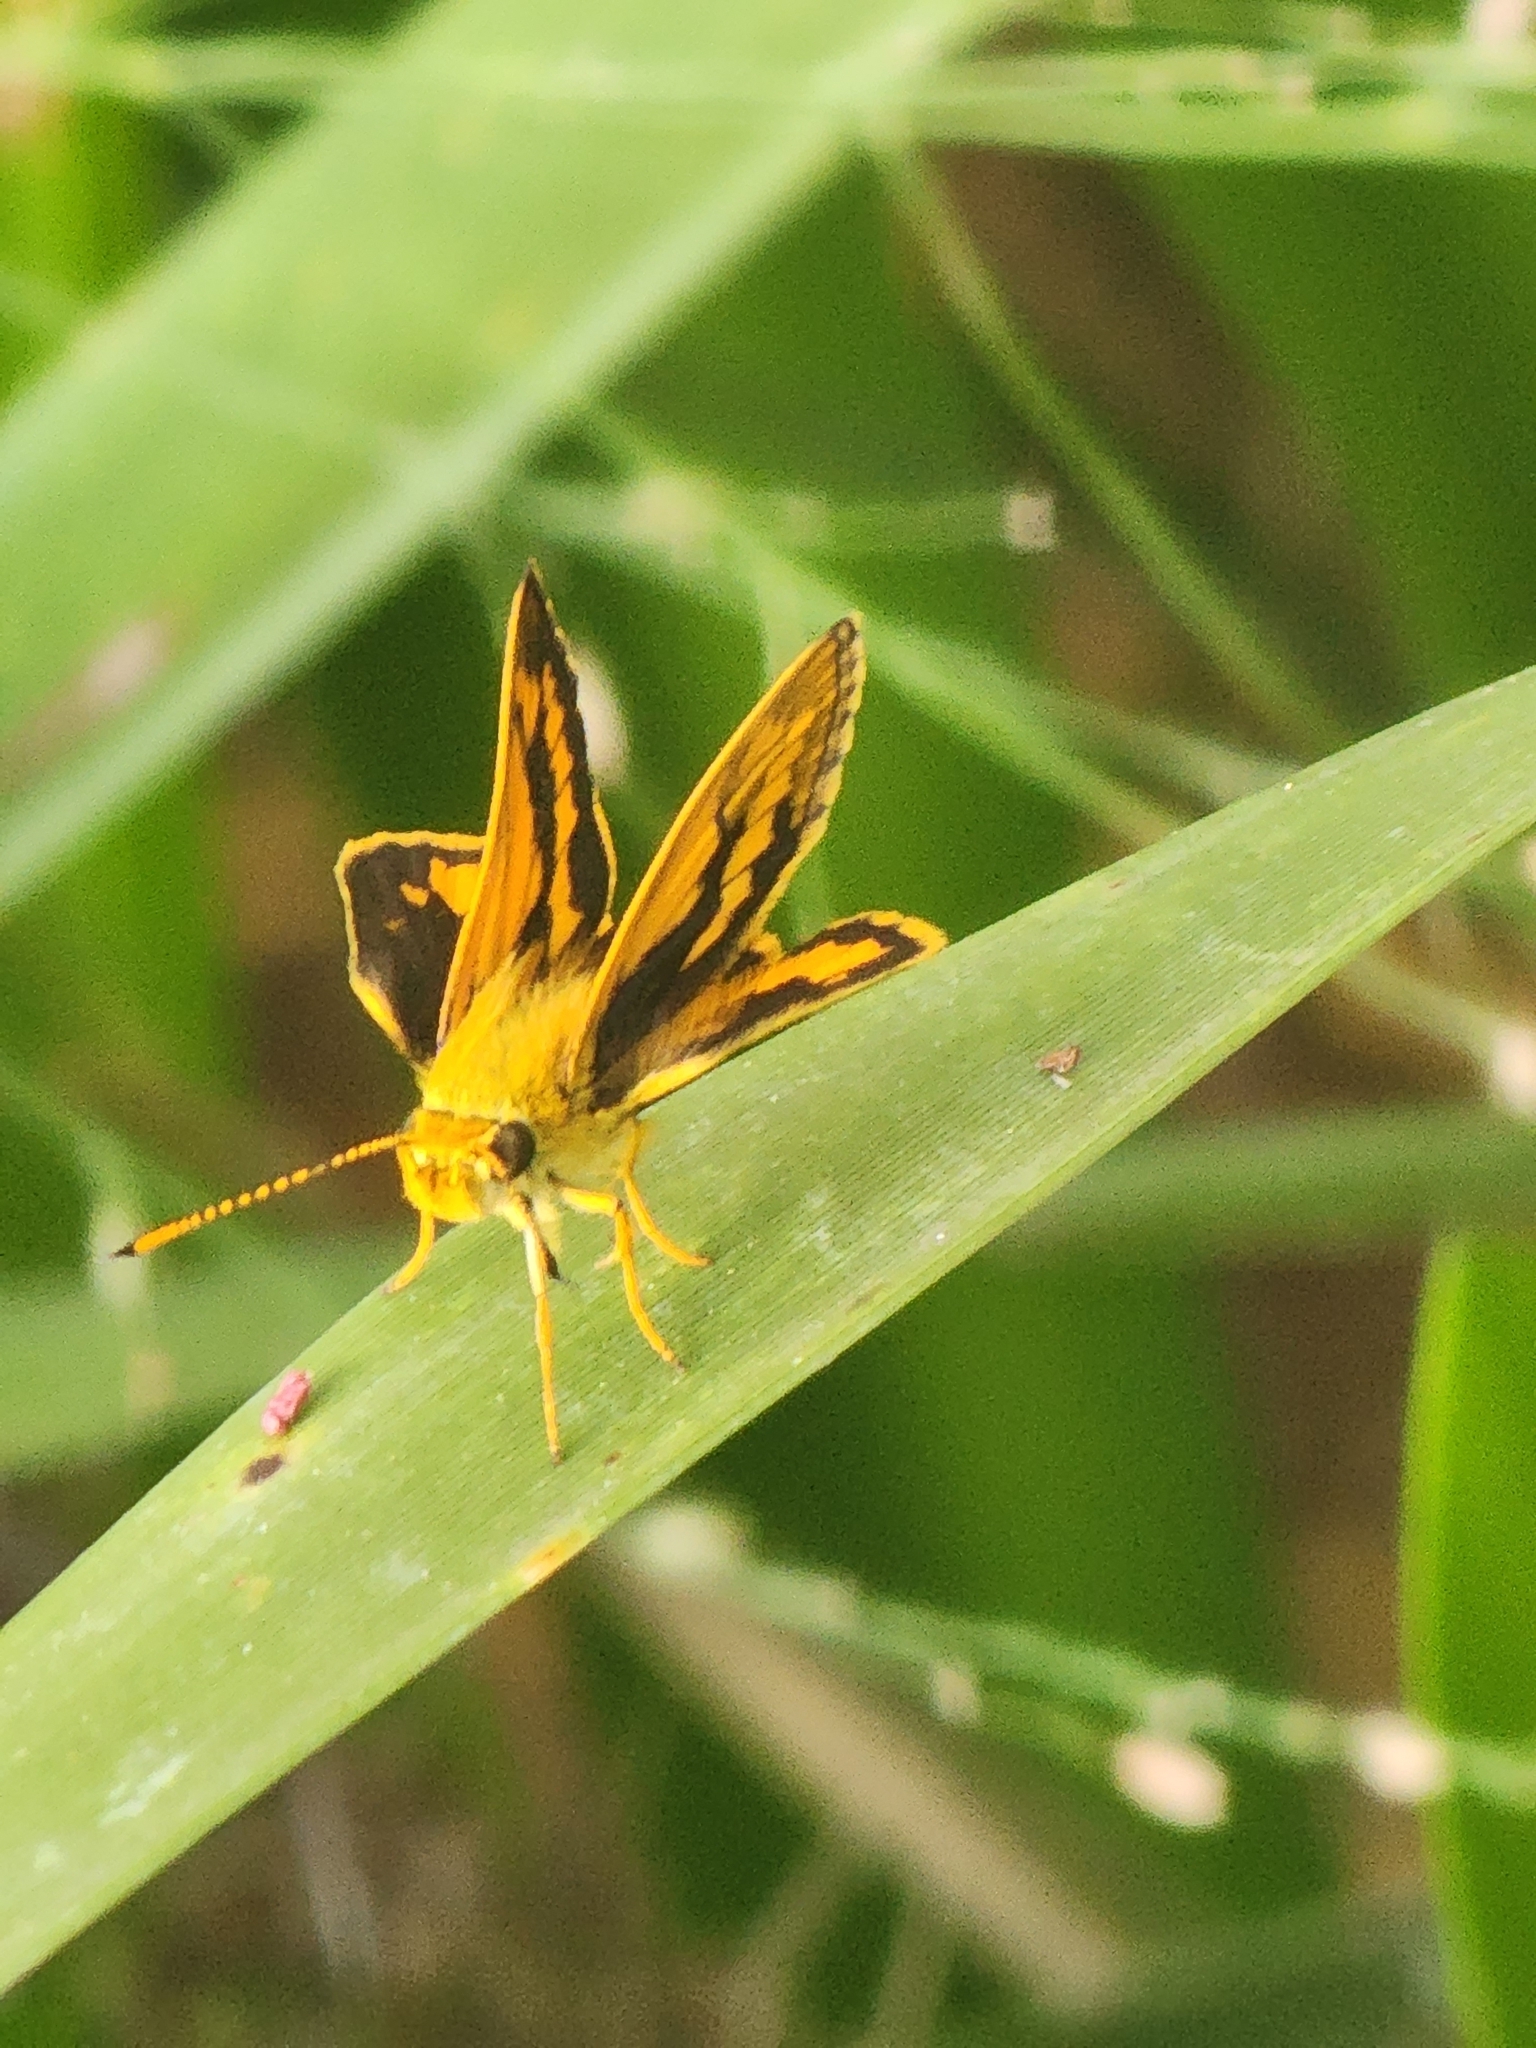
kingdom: Animalia
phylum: Arthropoda
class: Insecta
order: Lepidoptera
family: Hesperiidae
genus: Suniana
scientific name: Suniana sunias
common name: Wide-brand grass-dart
